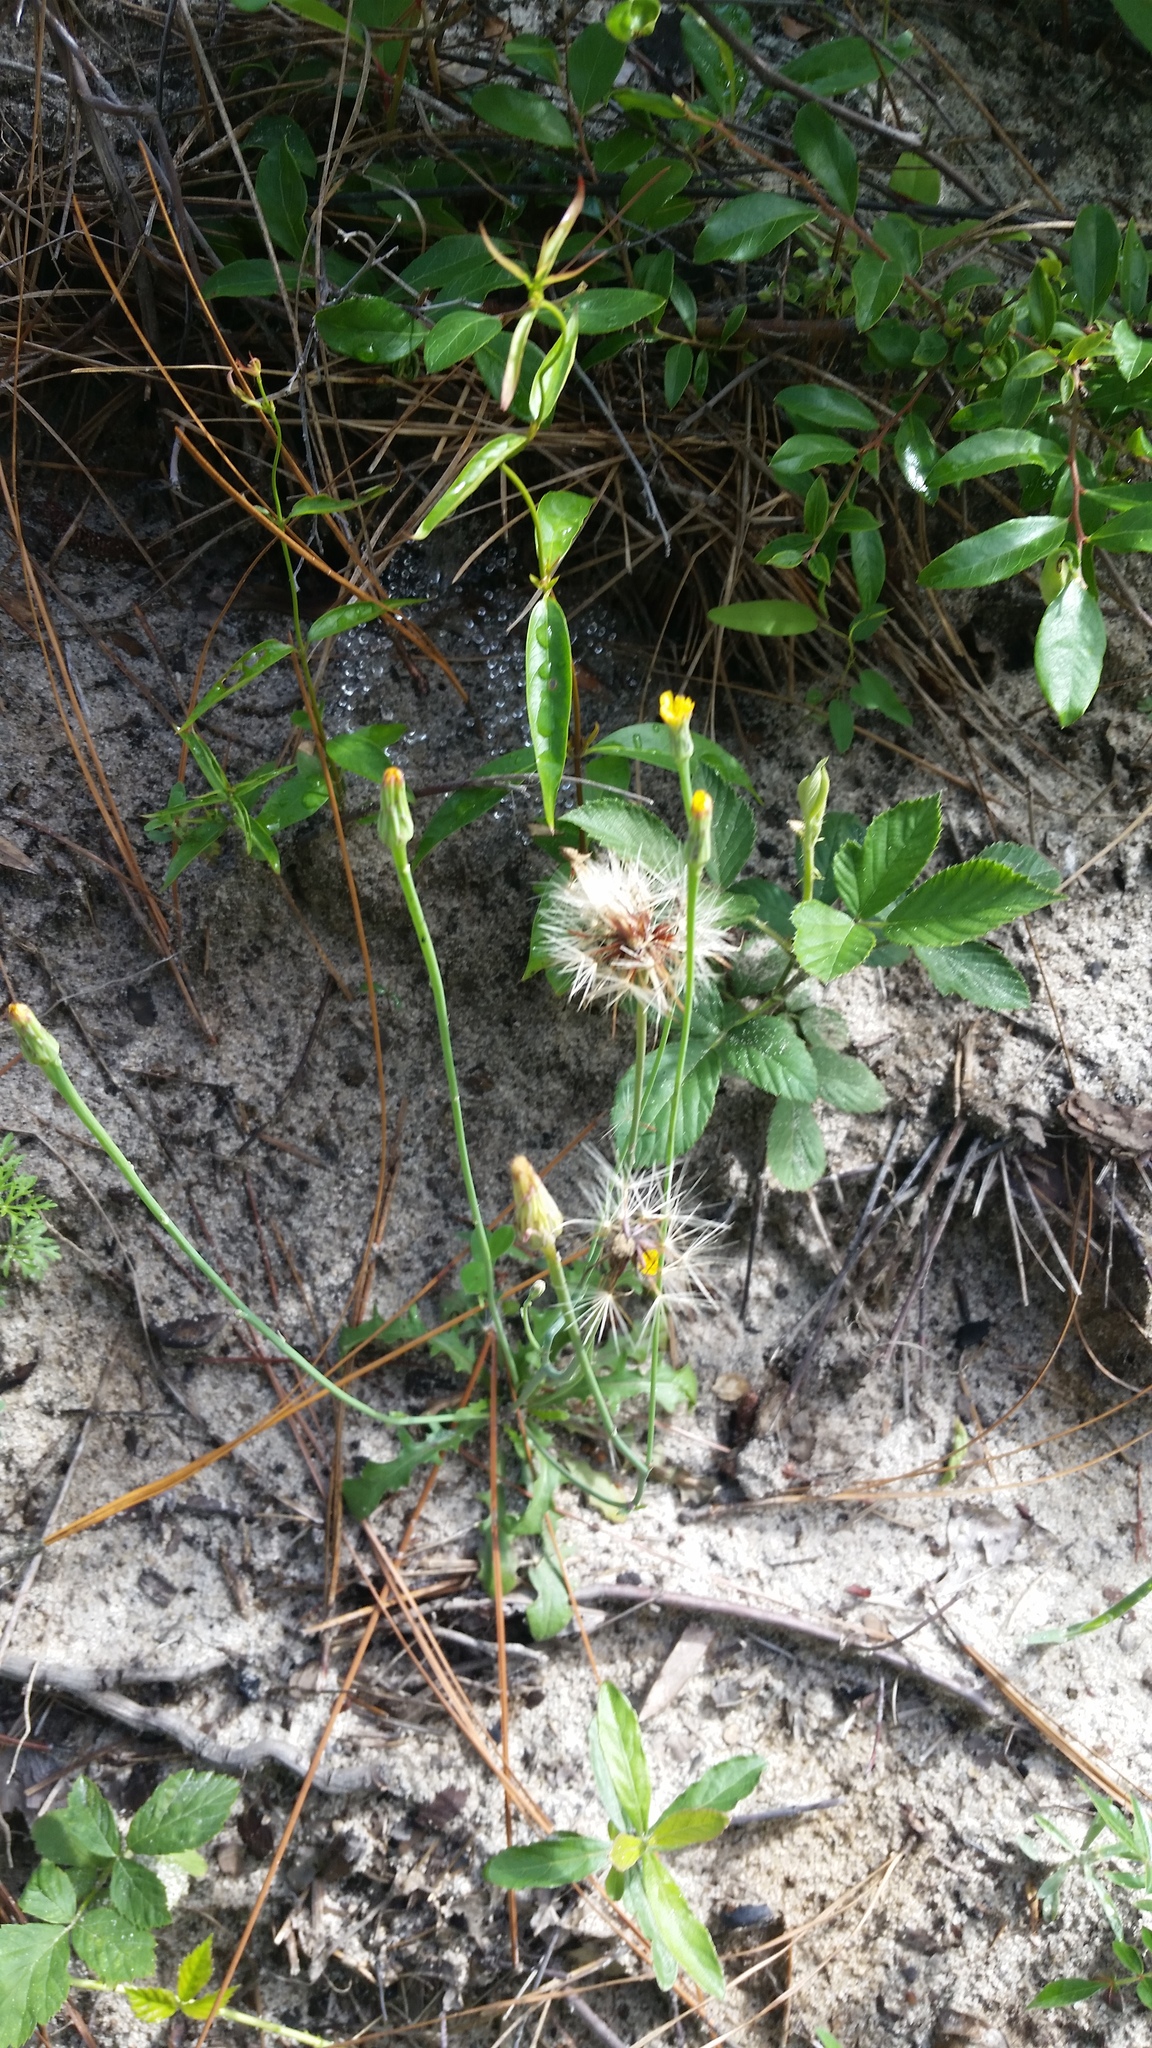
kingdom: Plantae
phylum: Tracheophyta
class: Magnoliopsida
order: Asterales
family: Asteraceae
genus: Hypochaeris
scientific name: Hypochaeris glabra
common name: Smooth catsear
